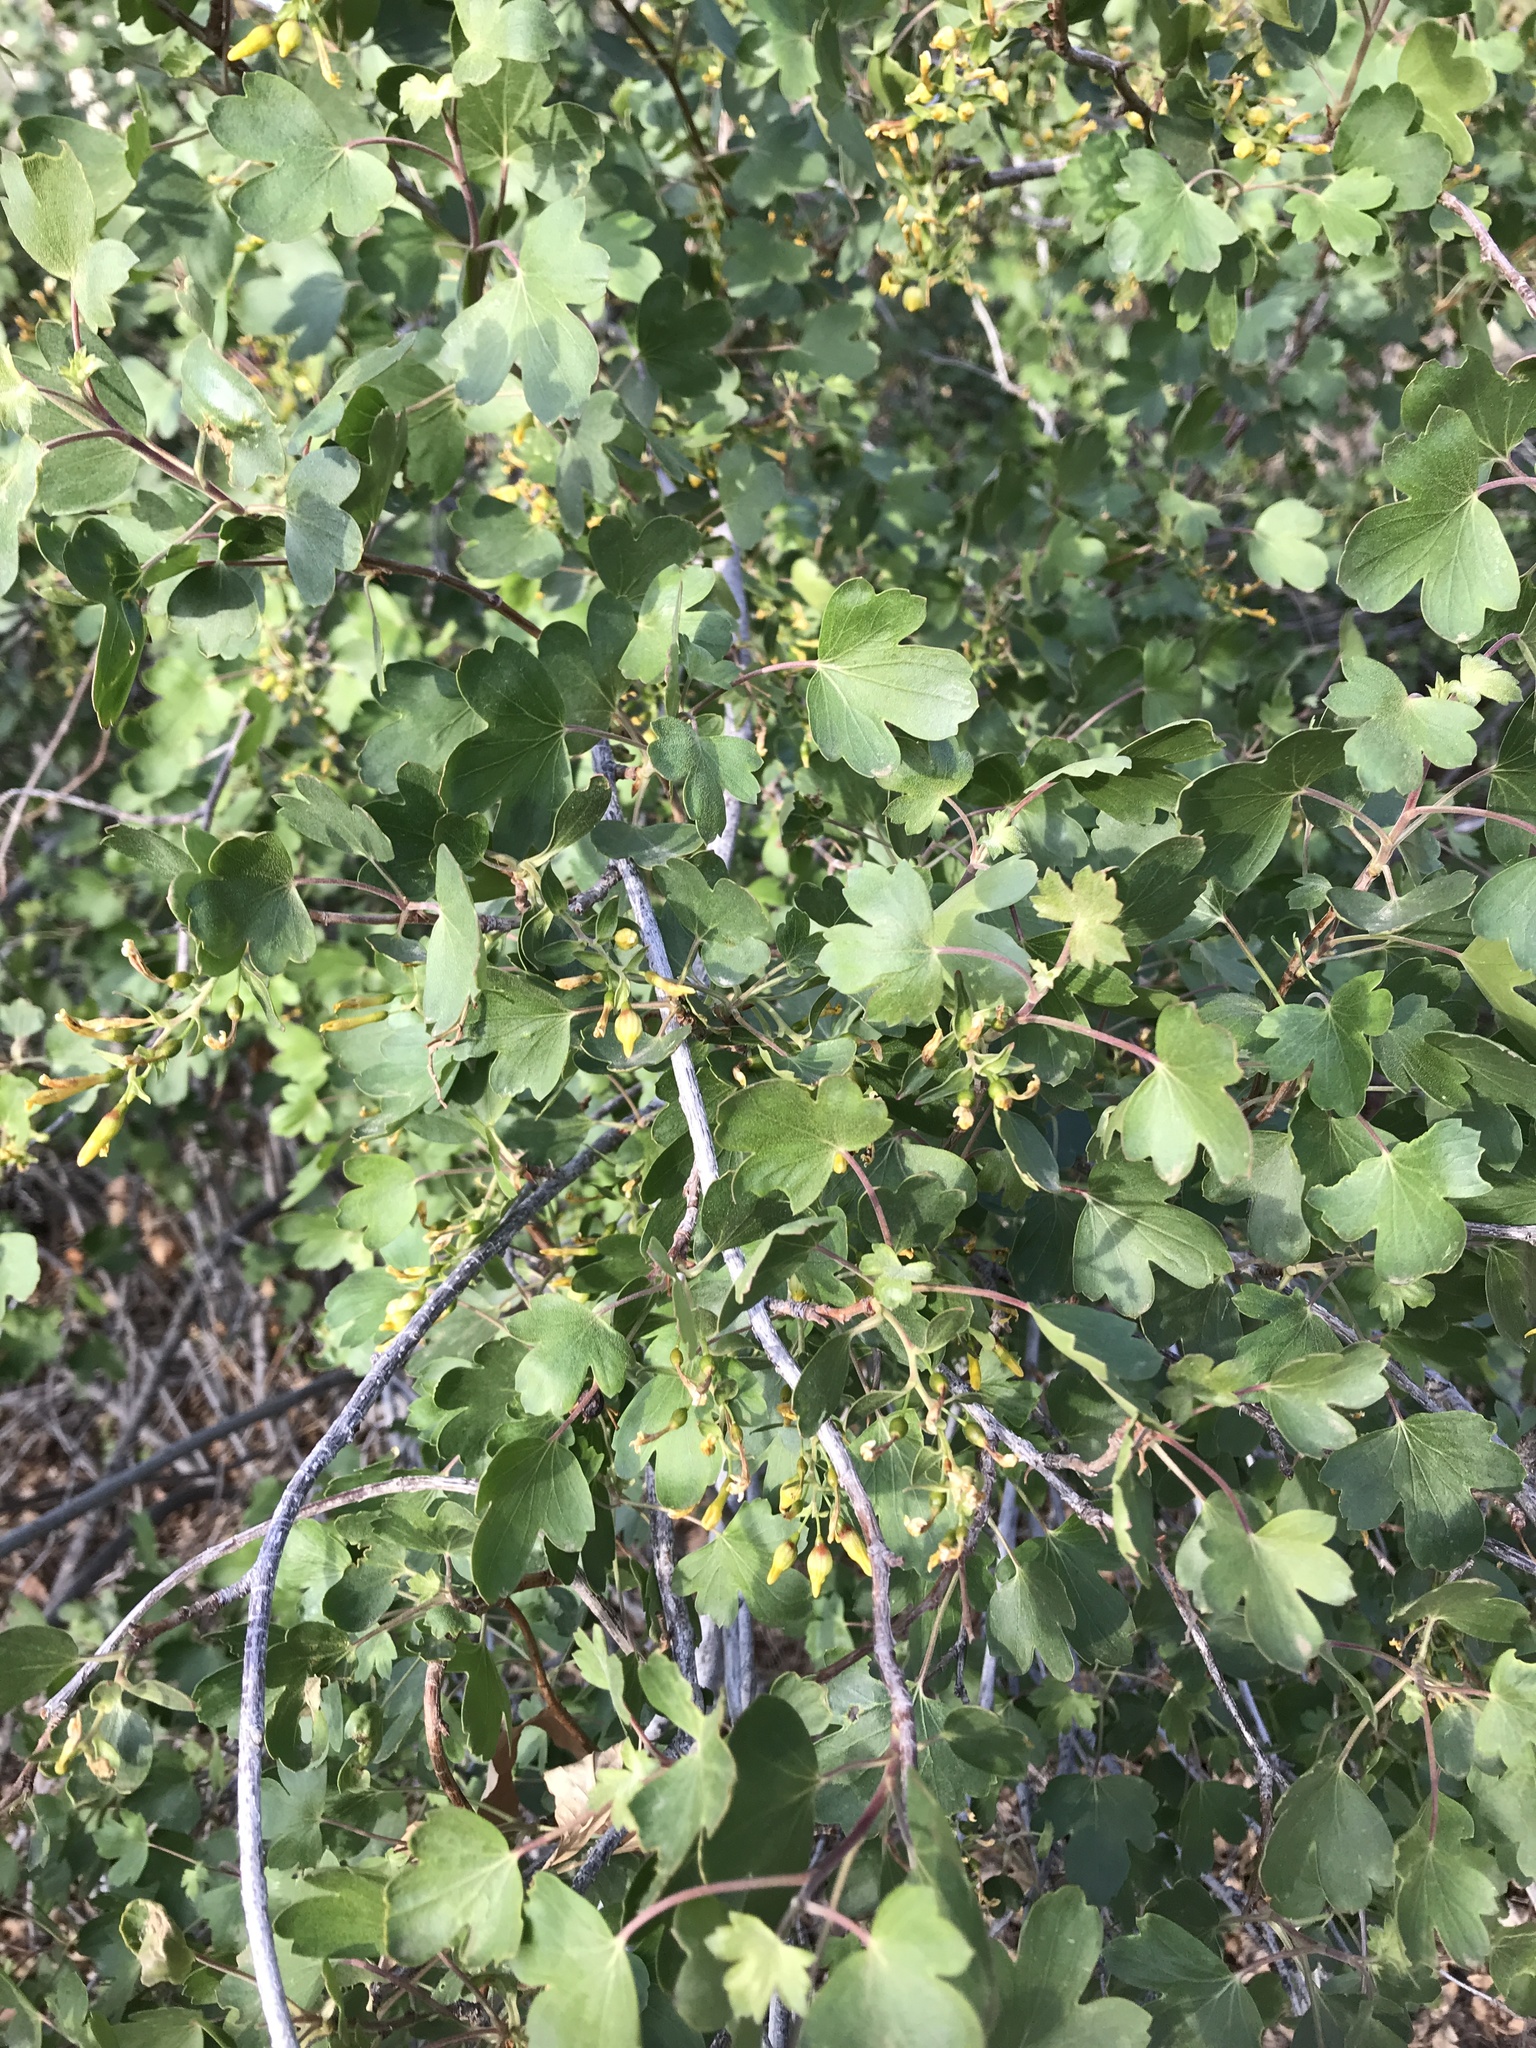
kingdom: Plantae
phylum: Tracheophyta
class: Magnoliopsida
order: Saxifragales
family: Grossulariaceae
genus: Ribes
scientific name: Ribes aureum
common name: Golden currant
